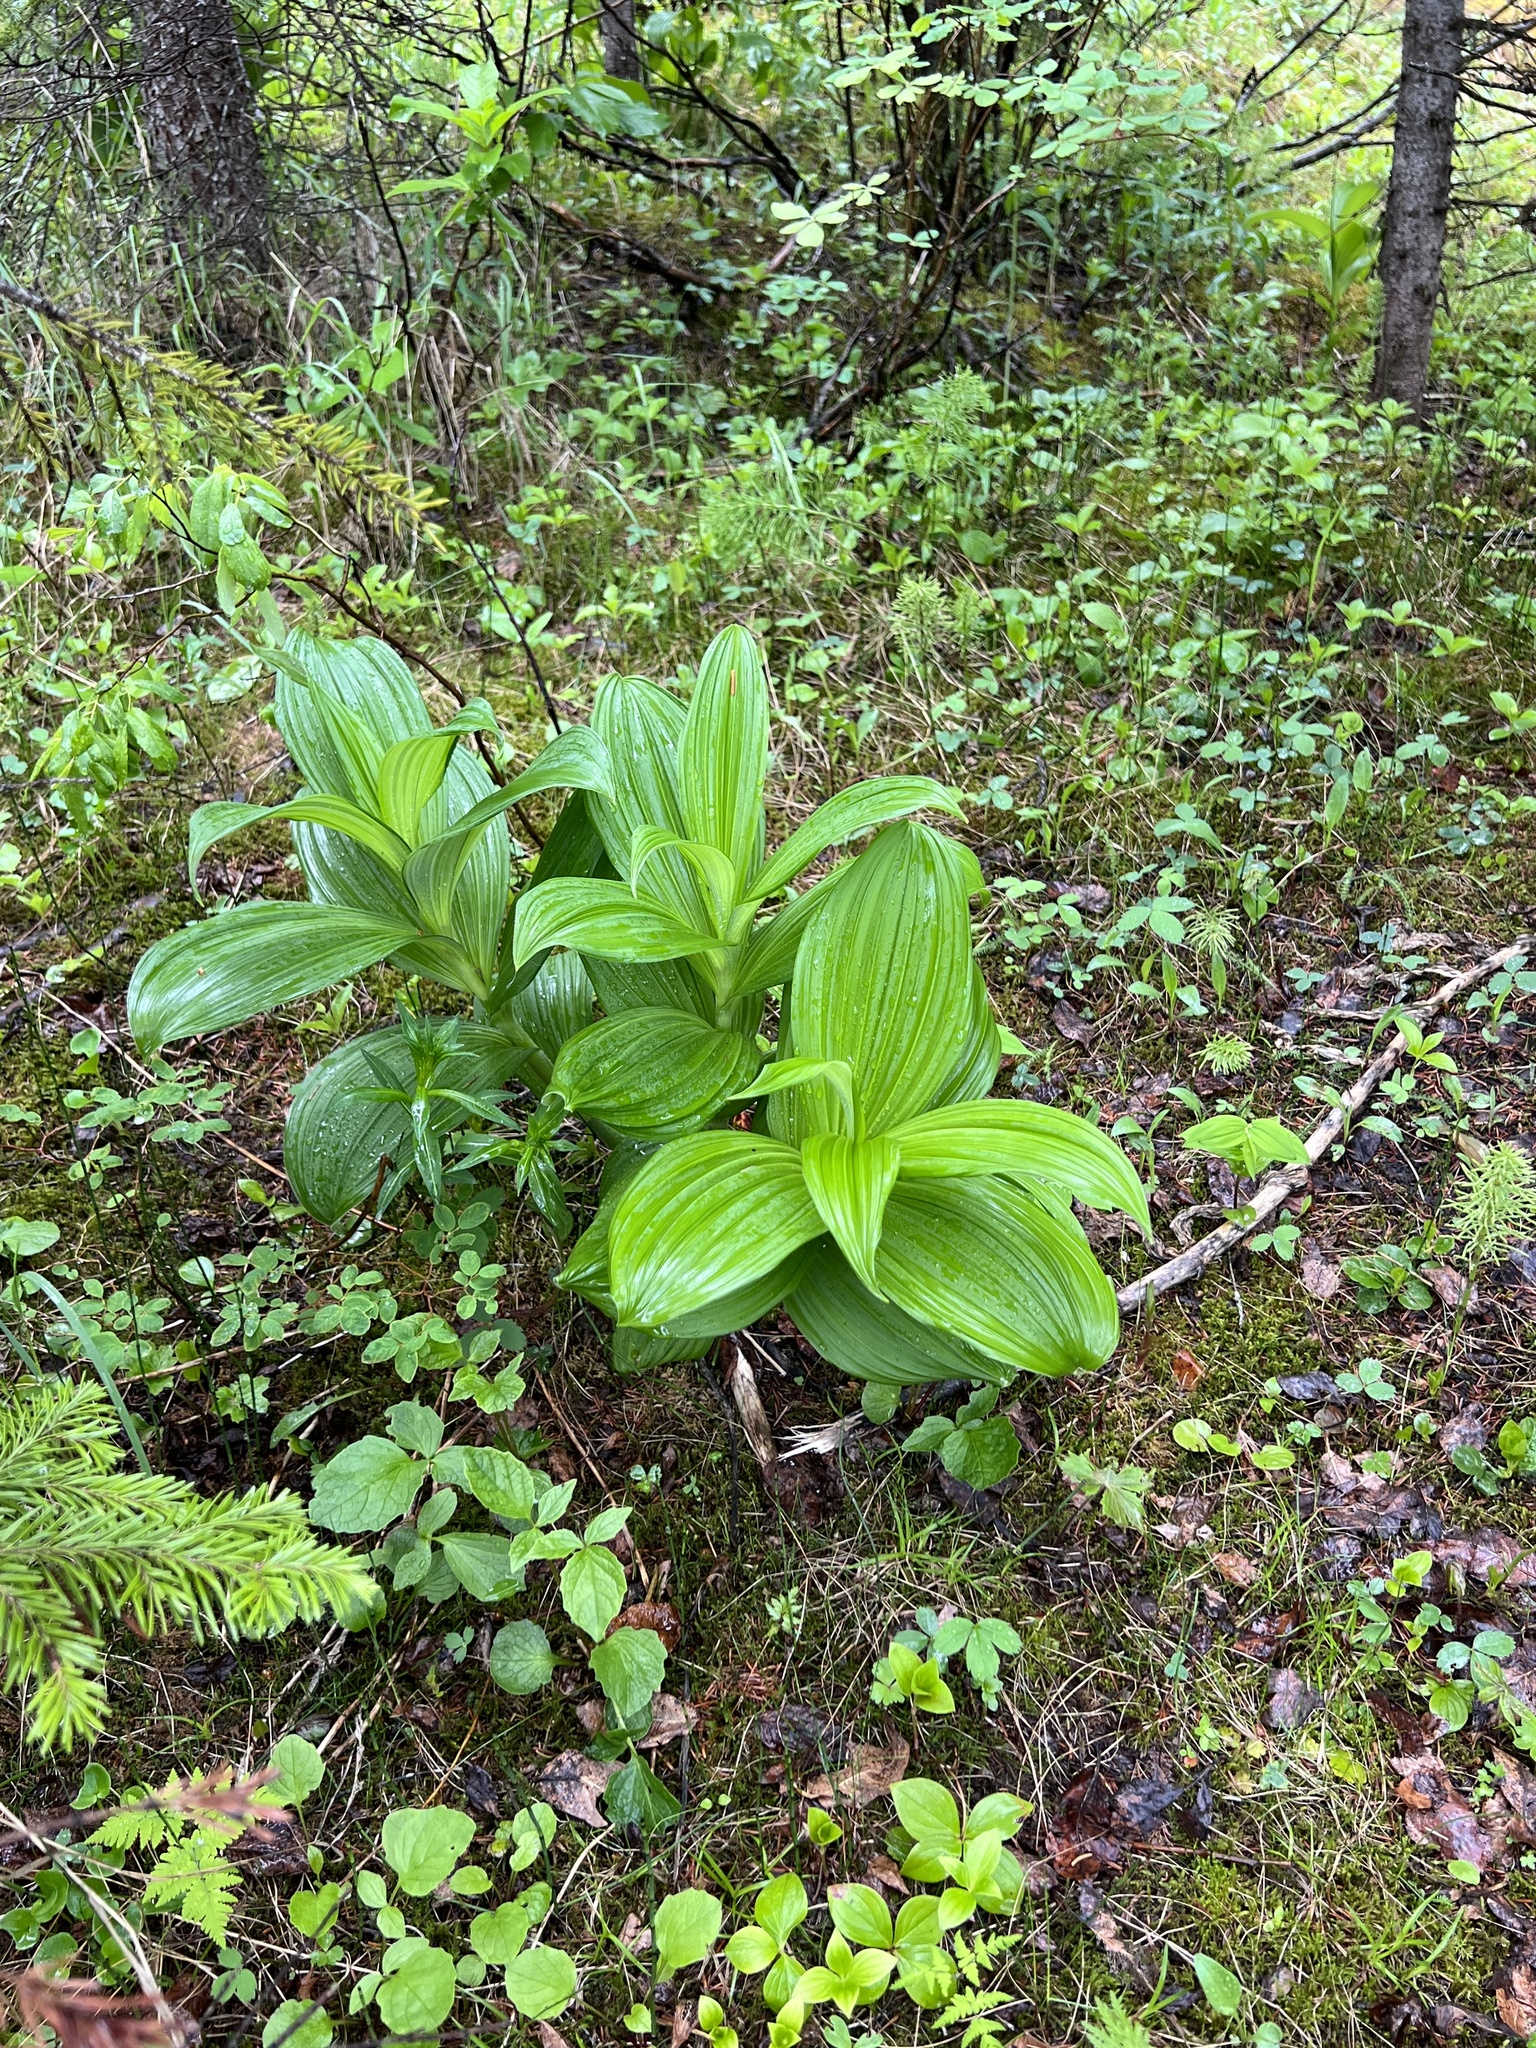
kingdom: Plantae
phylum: Tracheophyta
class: Liliopsida
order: Liliales
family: Melanthiaceae
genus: Veratrum
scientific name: Veratrum viride
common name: American false hellebore
